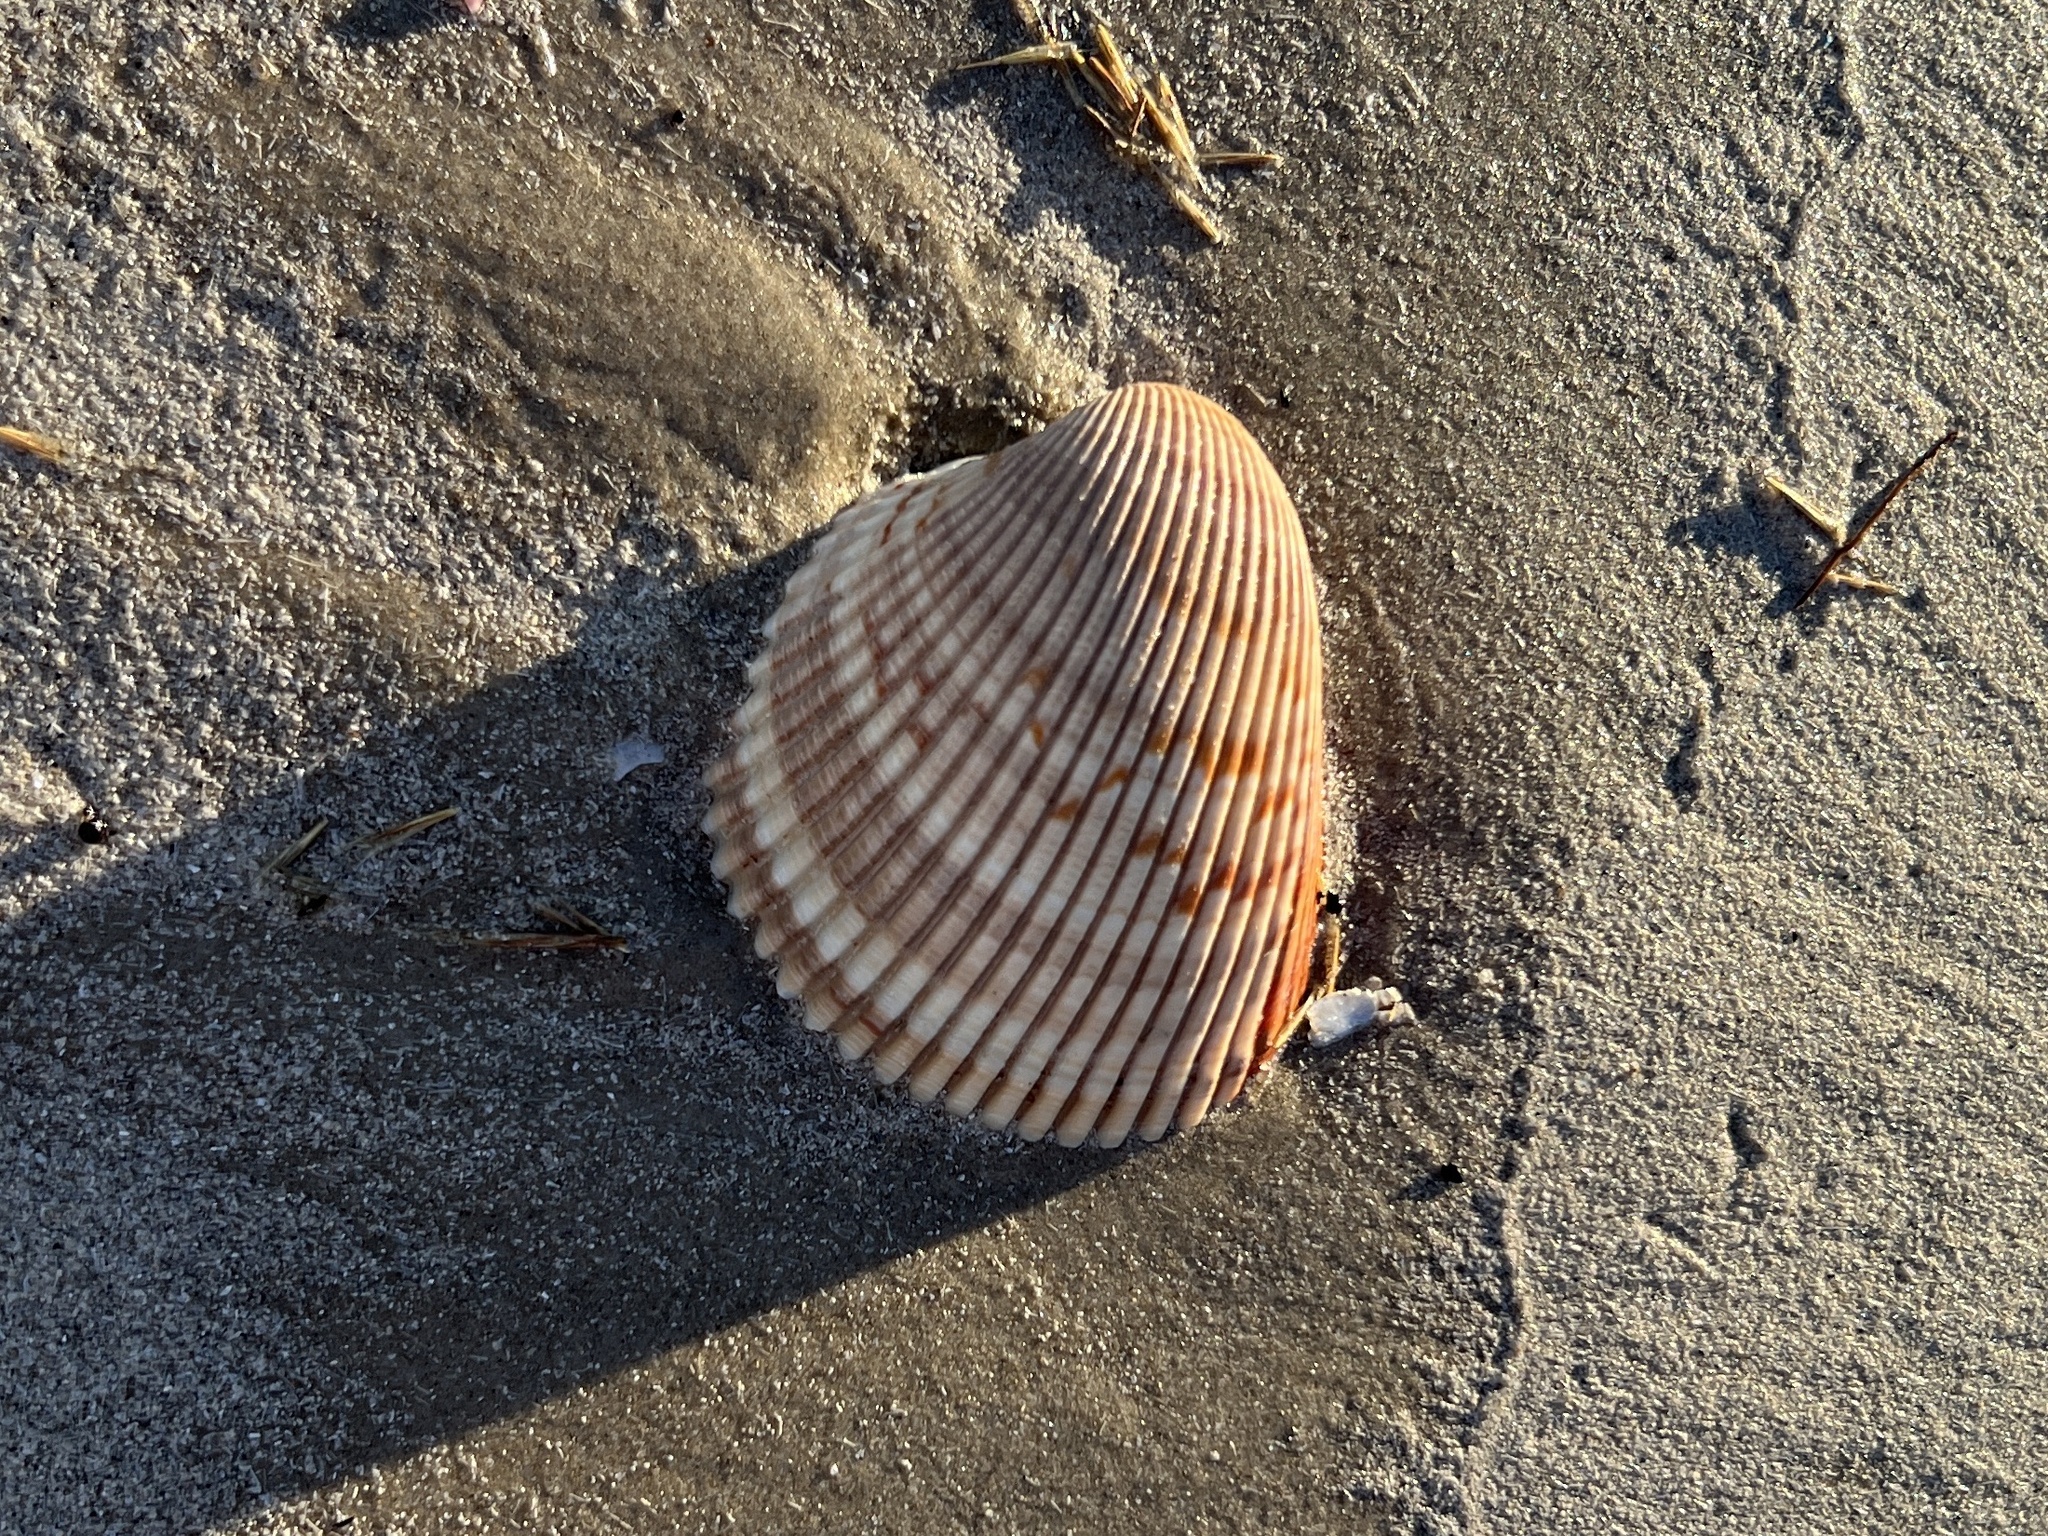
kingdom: Animalia
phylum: Mollusca
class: Bivalvia
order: Cardiida
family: Cardiidae
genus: Dinocardium
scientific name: Dinocardium robustum
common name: Atlantic giant cockle
